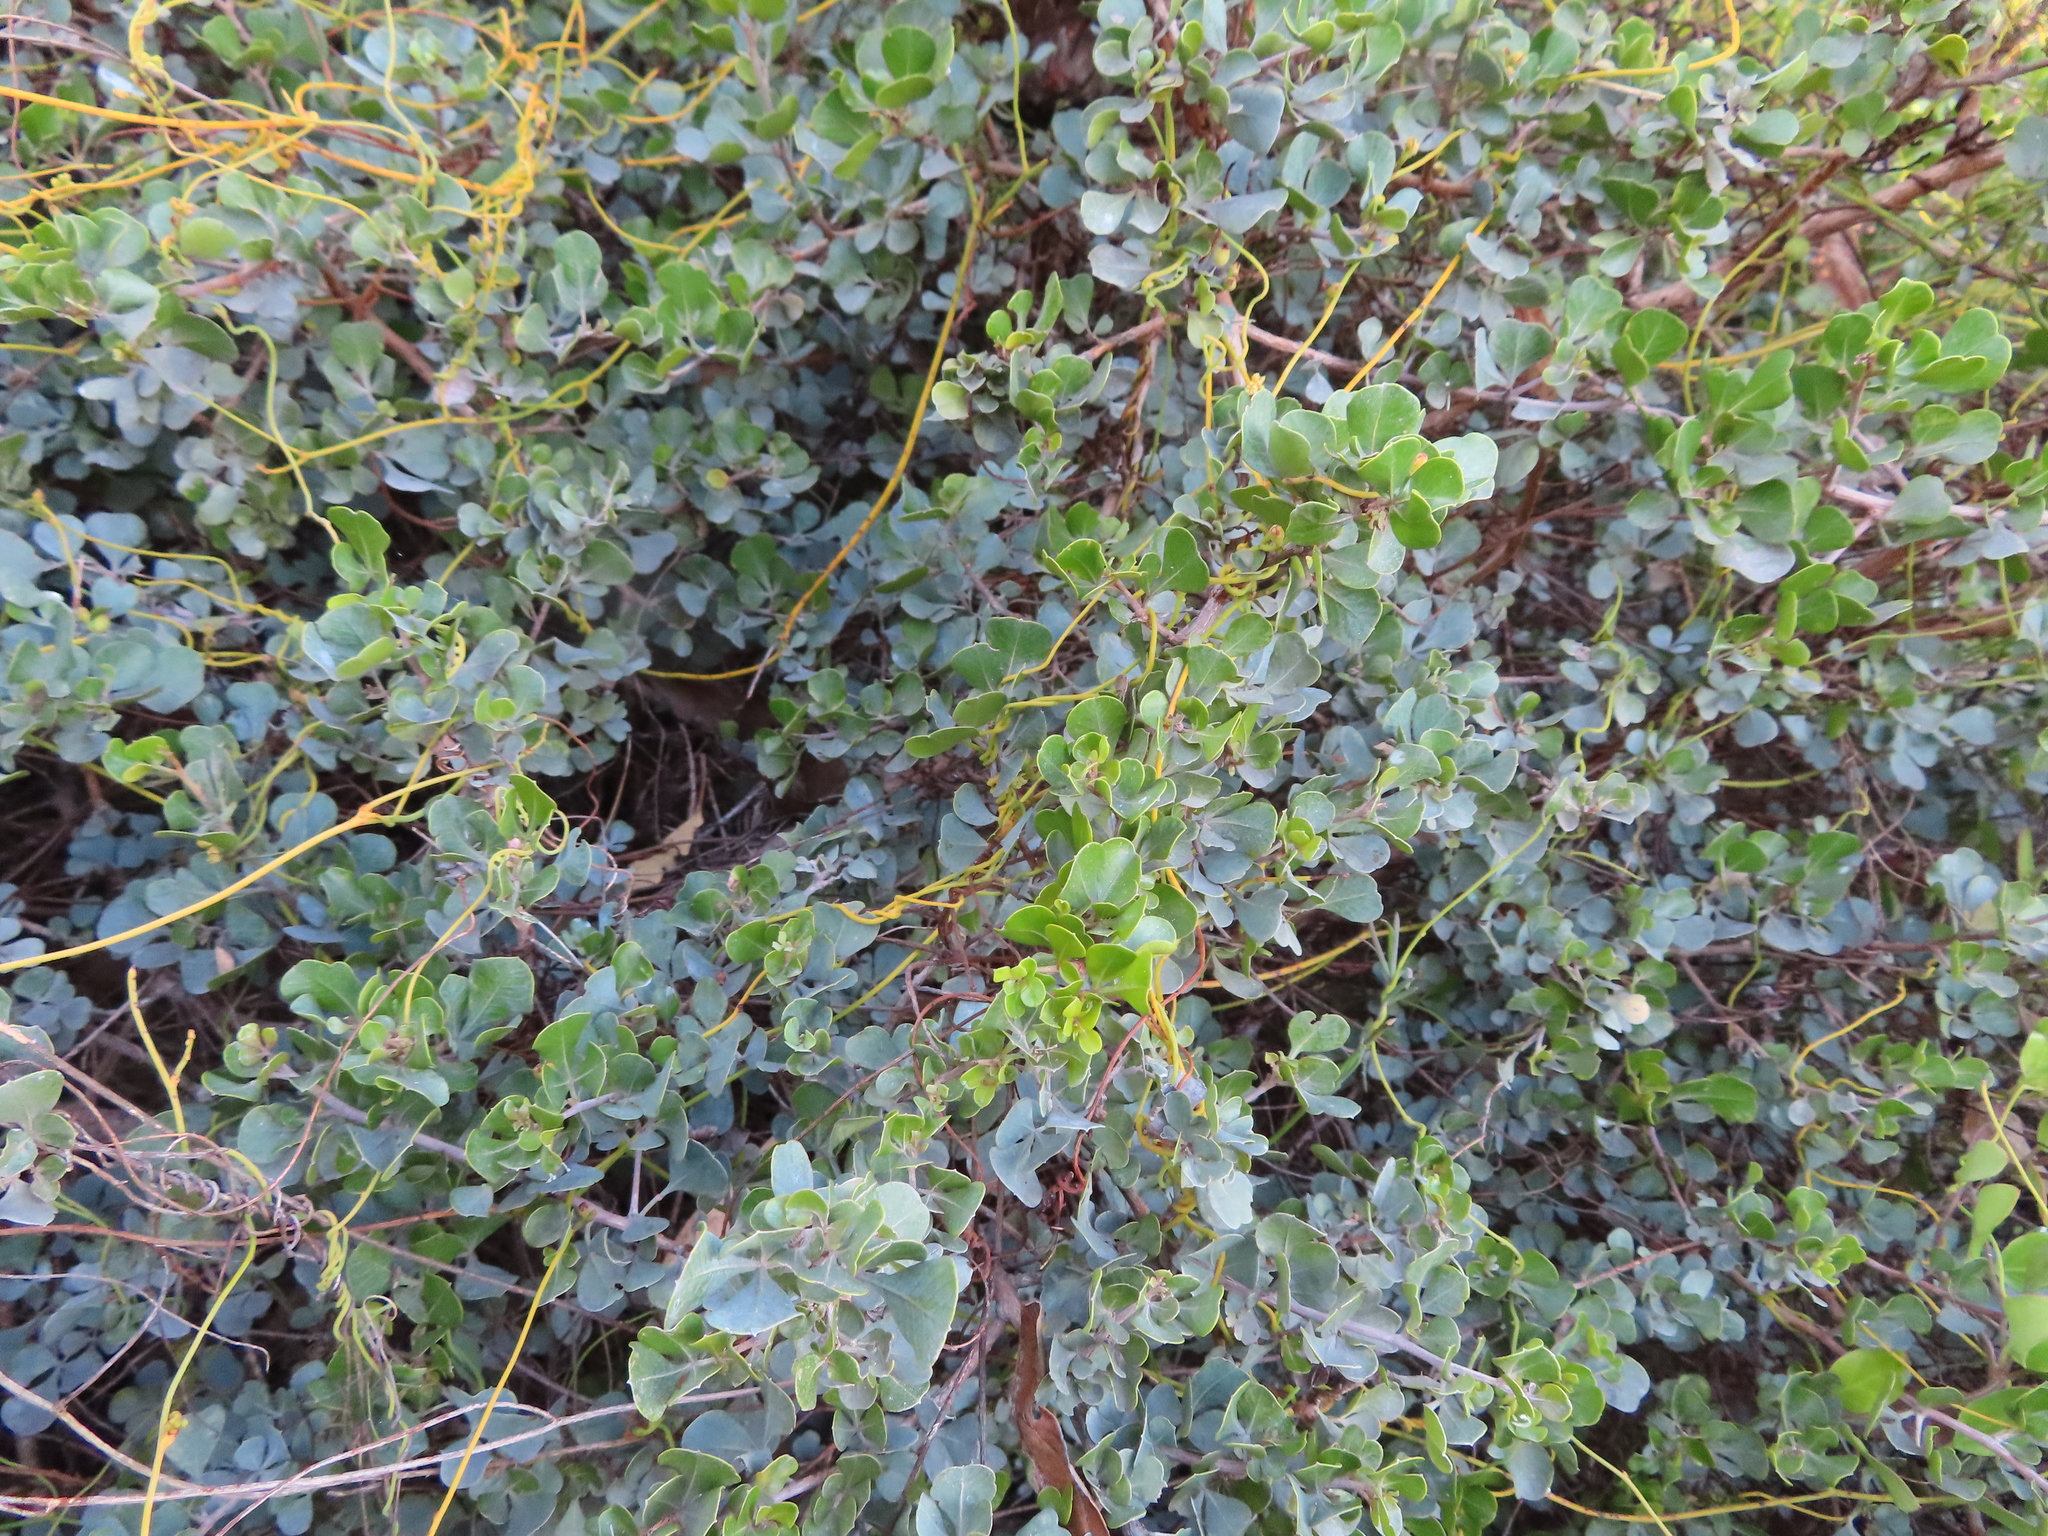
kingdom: Plantae
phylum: Tracheophyta
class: Magnoliopsida
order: Sapindales
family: Anacardiaceae
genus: Searsia
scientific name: Searsia glauca
